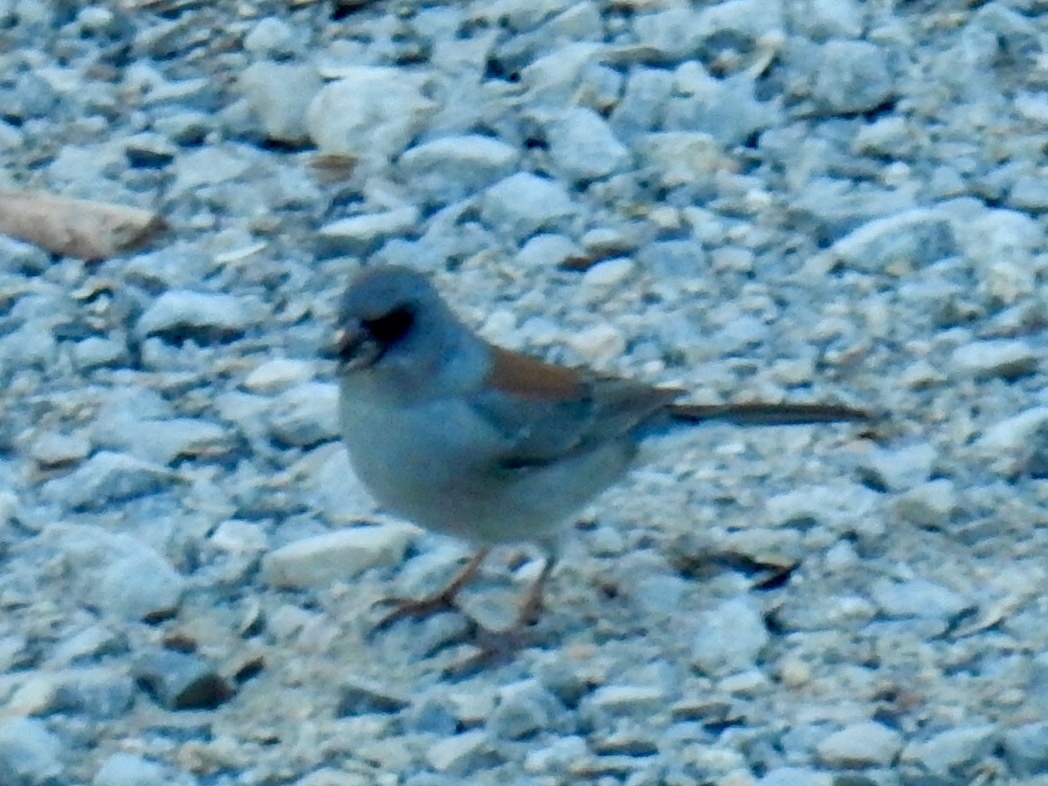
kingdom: Animalia
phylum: Chordata
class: Aves
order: Passeriformes
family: Passerellidae
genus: Junco
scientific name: Junco hyemalis
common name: Dark-eyed junco
